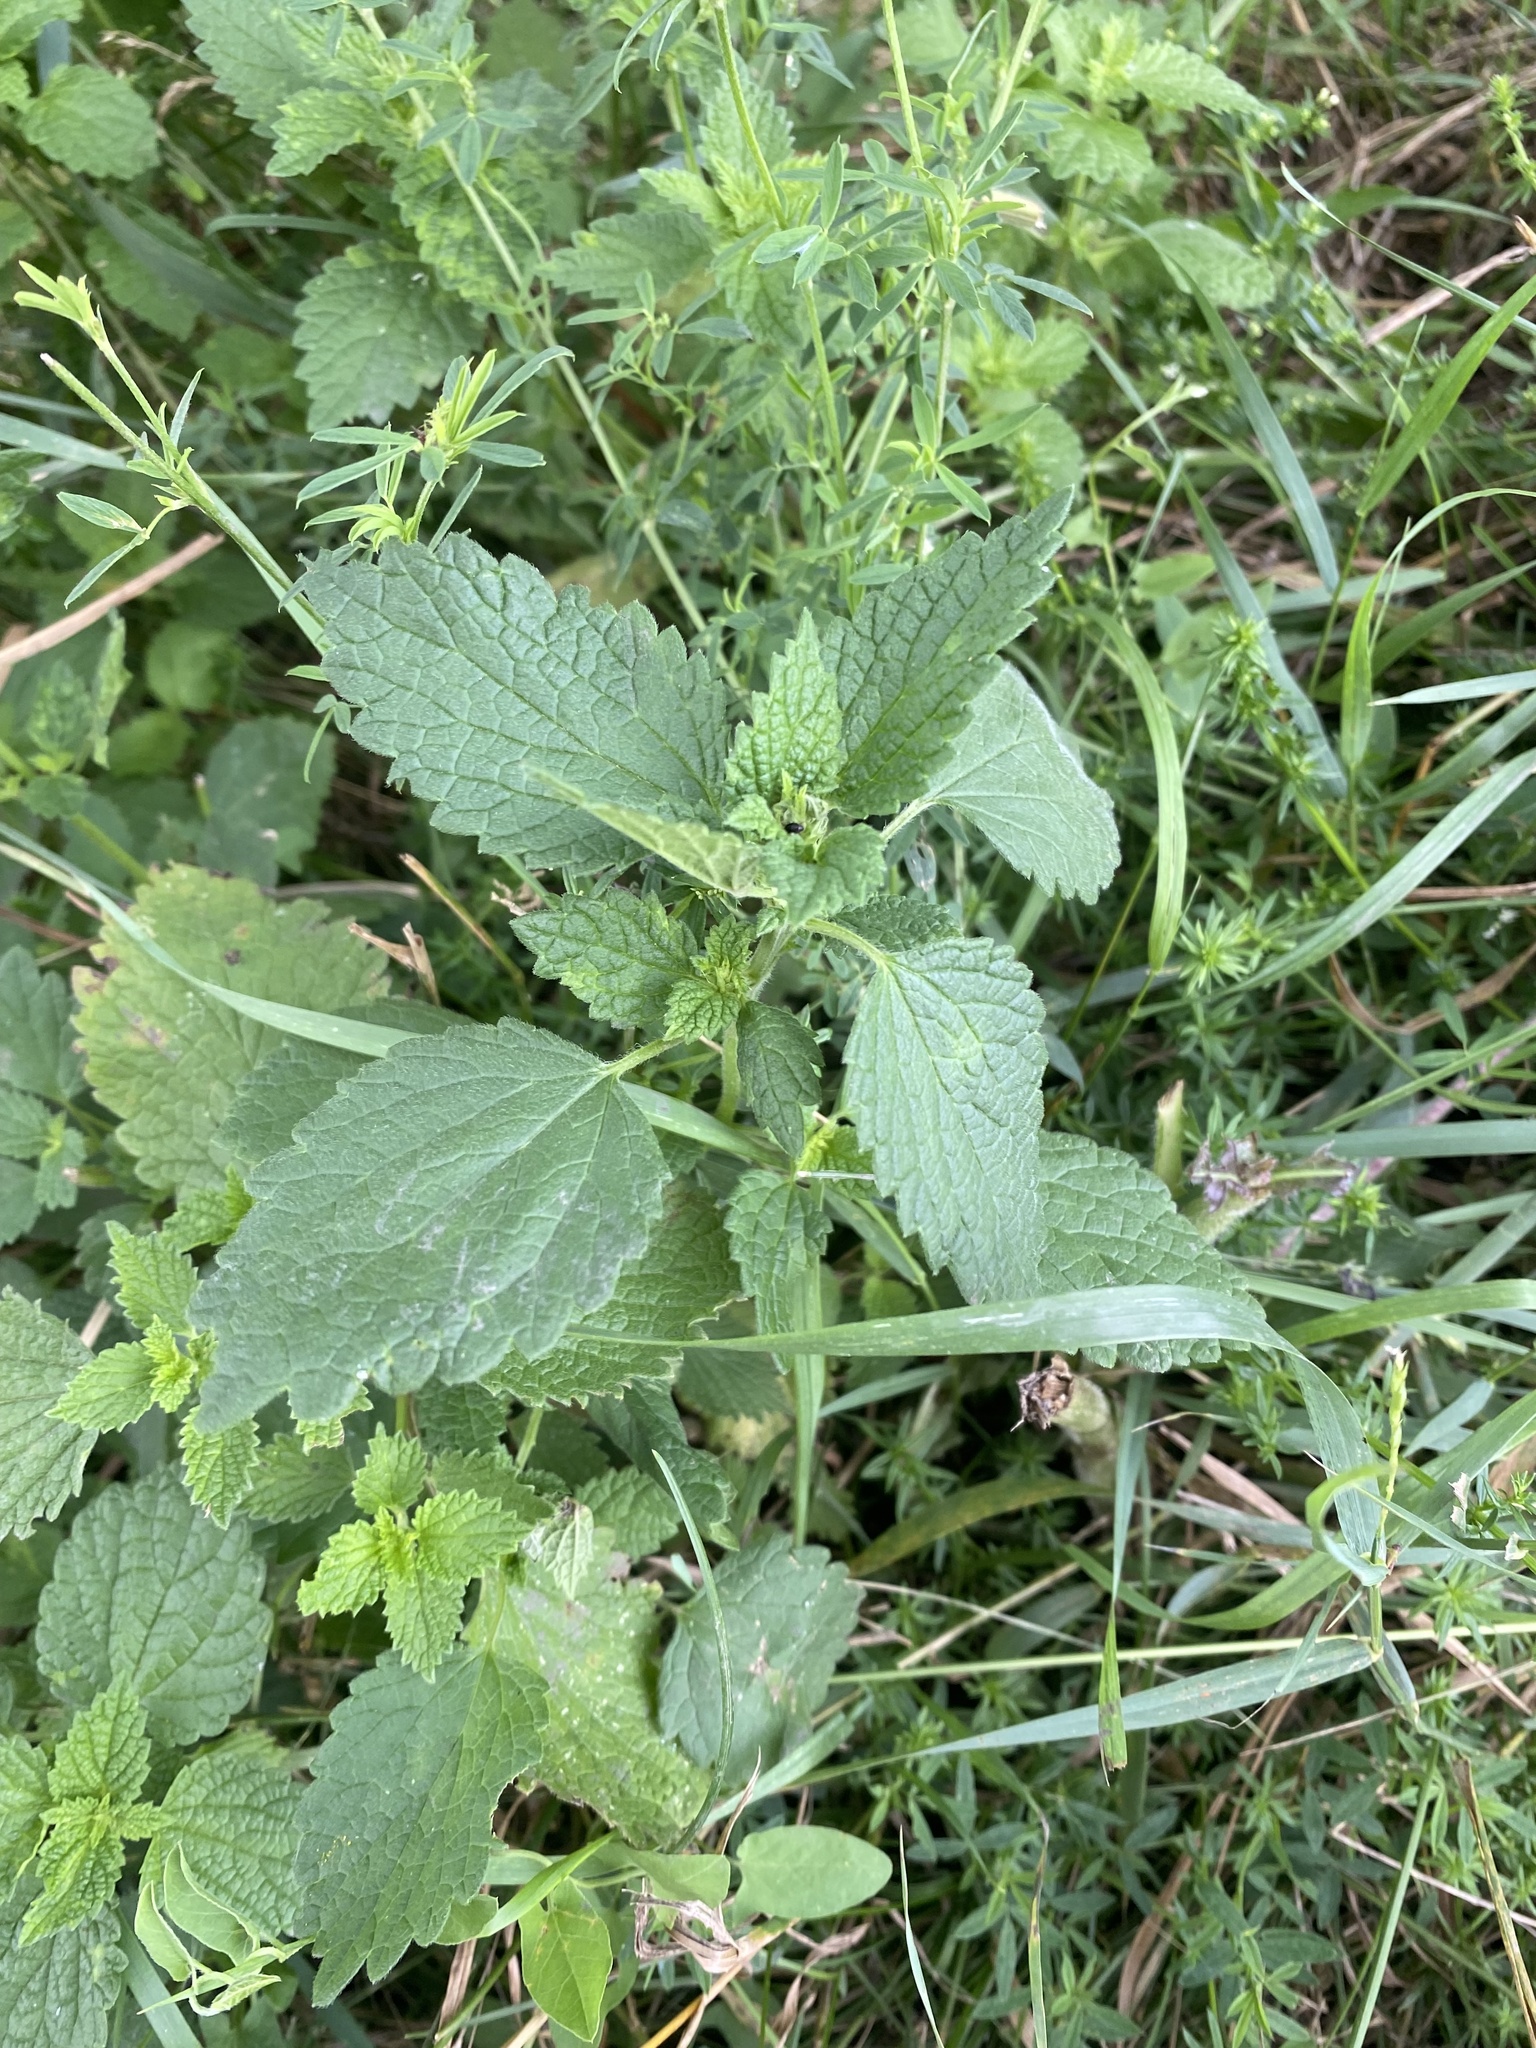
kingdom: Plantae
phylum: Tracheophyta
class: Magnoliopsida
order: Lamiales
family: Lamiaceae
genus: Ballota
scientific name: Ballota nigra
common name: Black horehound
